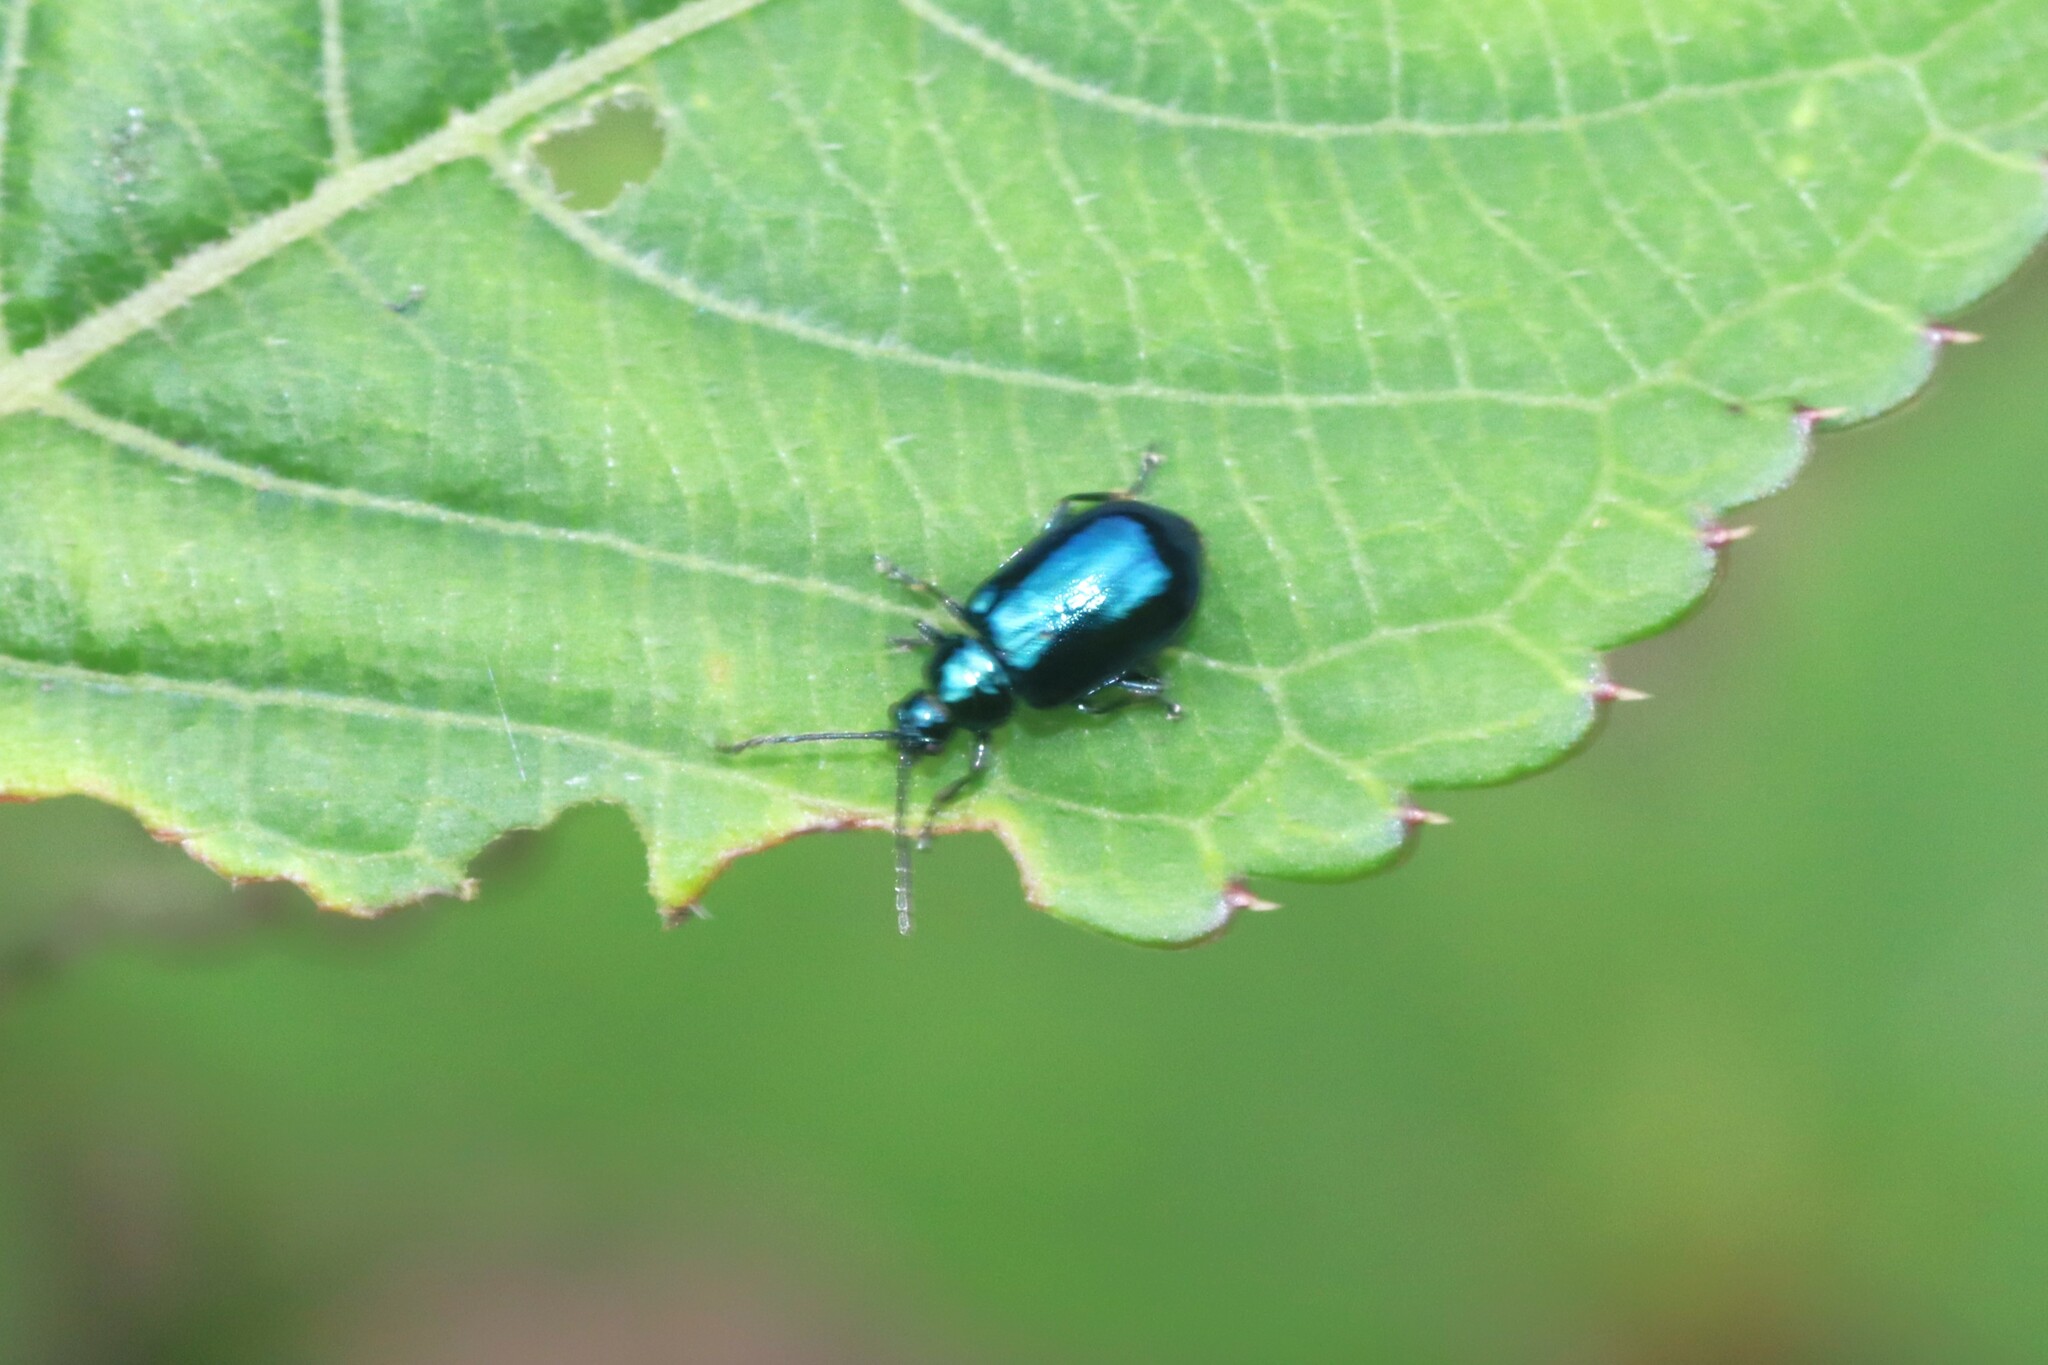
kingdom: Animalia
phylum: Arthropoda
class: Insecta
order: Coleoptera
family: Chrysomelidae
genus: Altica
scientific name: Altica
